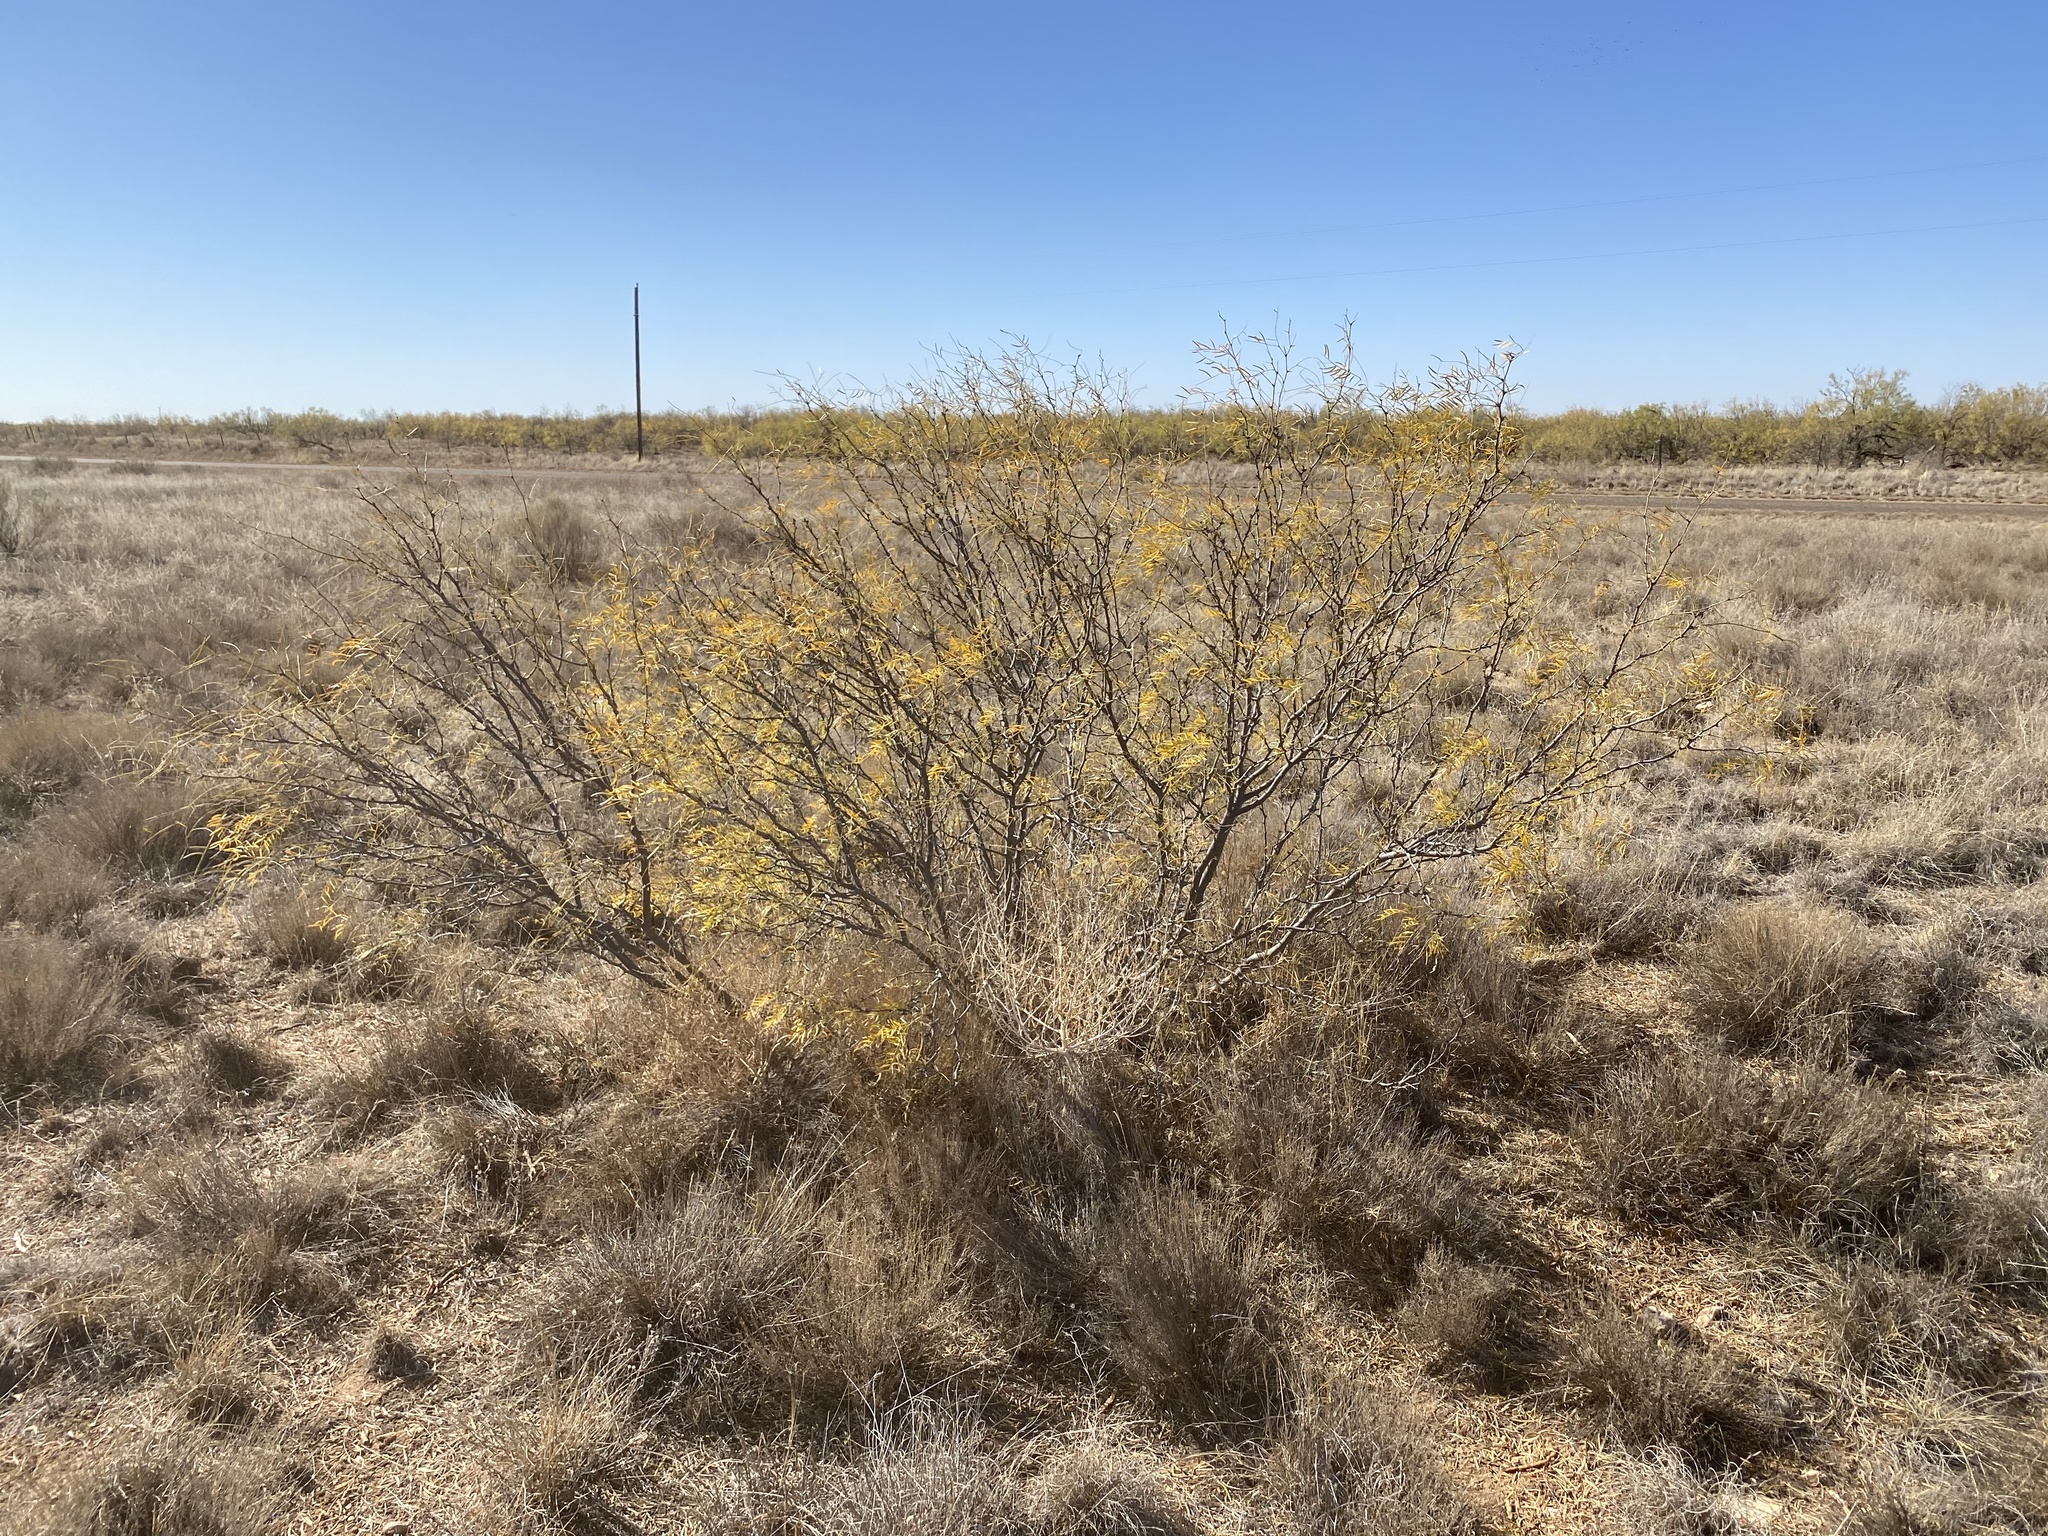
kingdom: Plantae
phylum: Tracheophyta
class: Magnoliopsida
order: Fabales
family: Fabaceae
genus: Prosopis
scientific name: Prosopis glandulosa
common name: Honey mesquite
